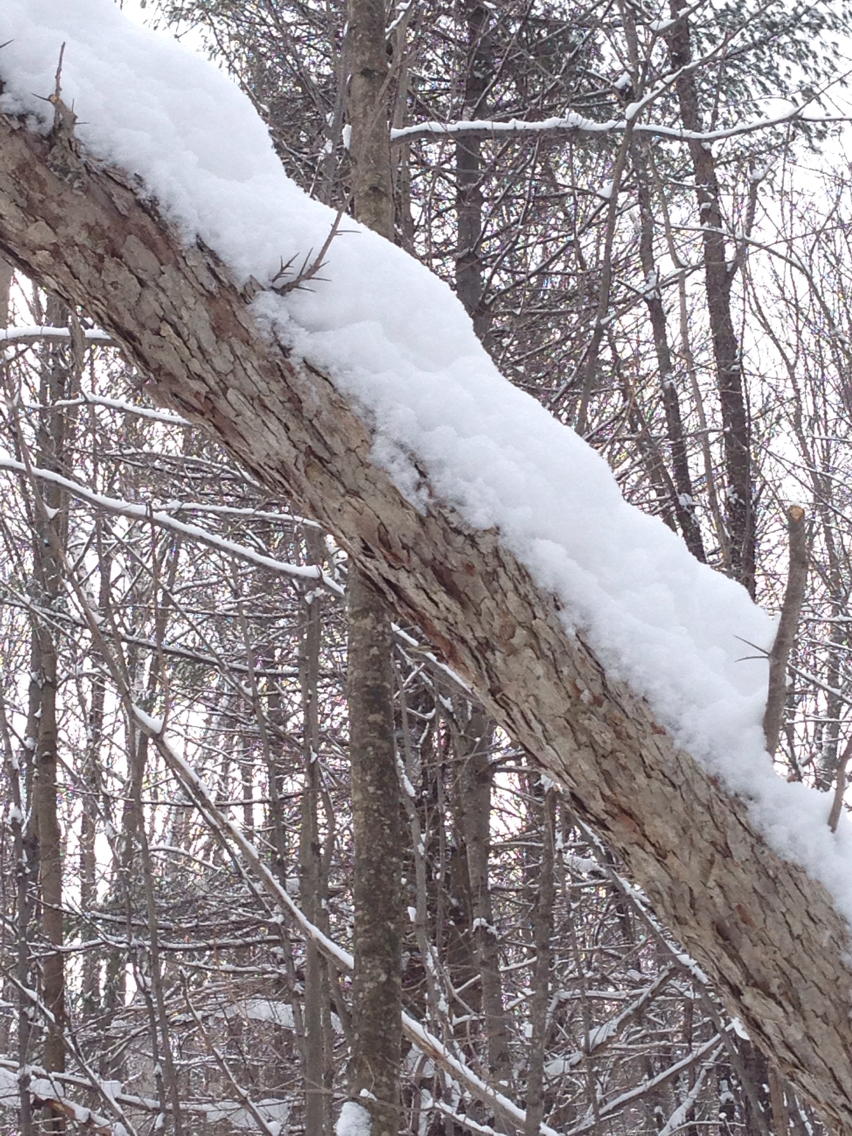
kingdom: Plantae
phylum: Tracheophyta
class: Magnoliopsida
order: Rosales
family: Rosaceae
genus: Crataegus
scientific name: Crataegus
